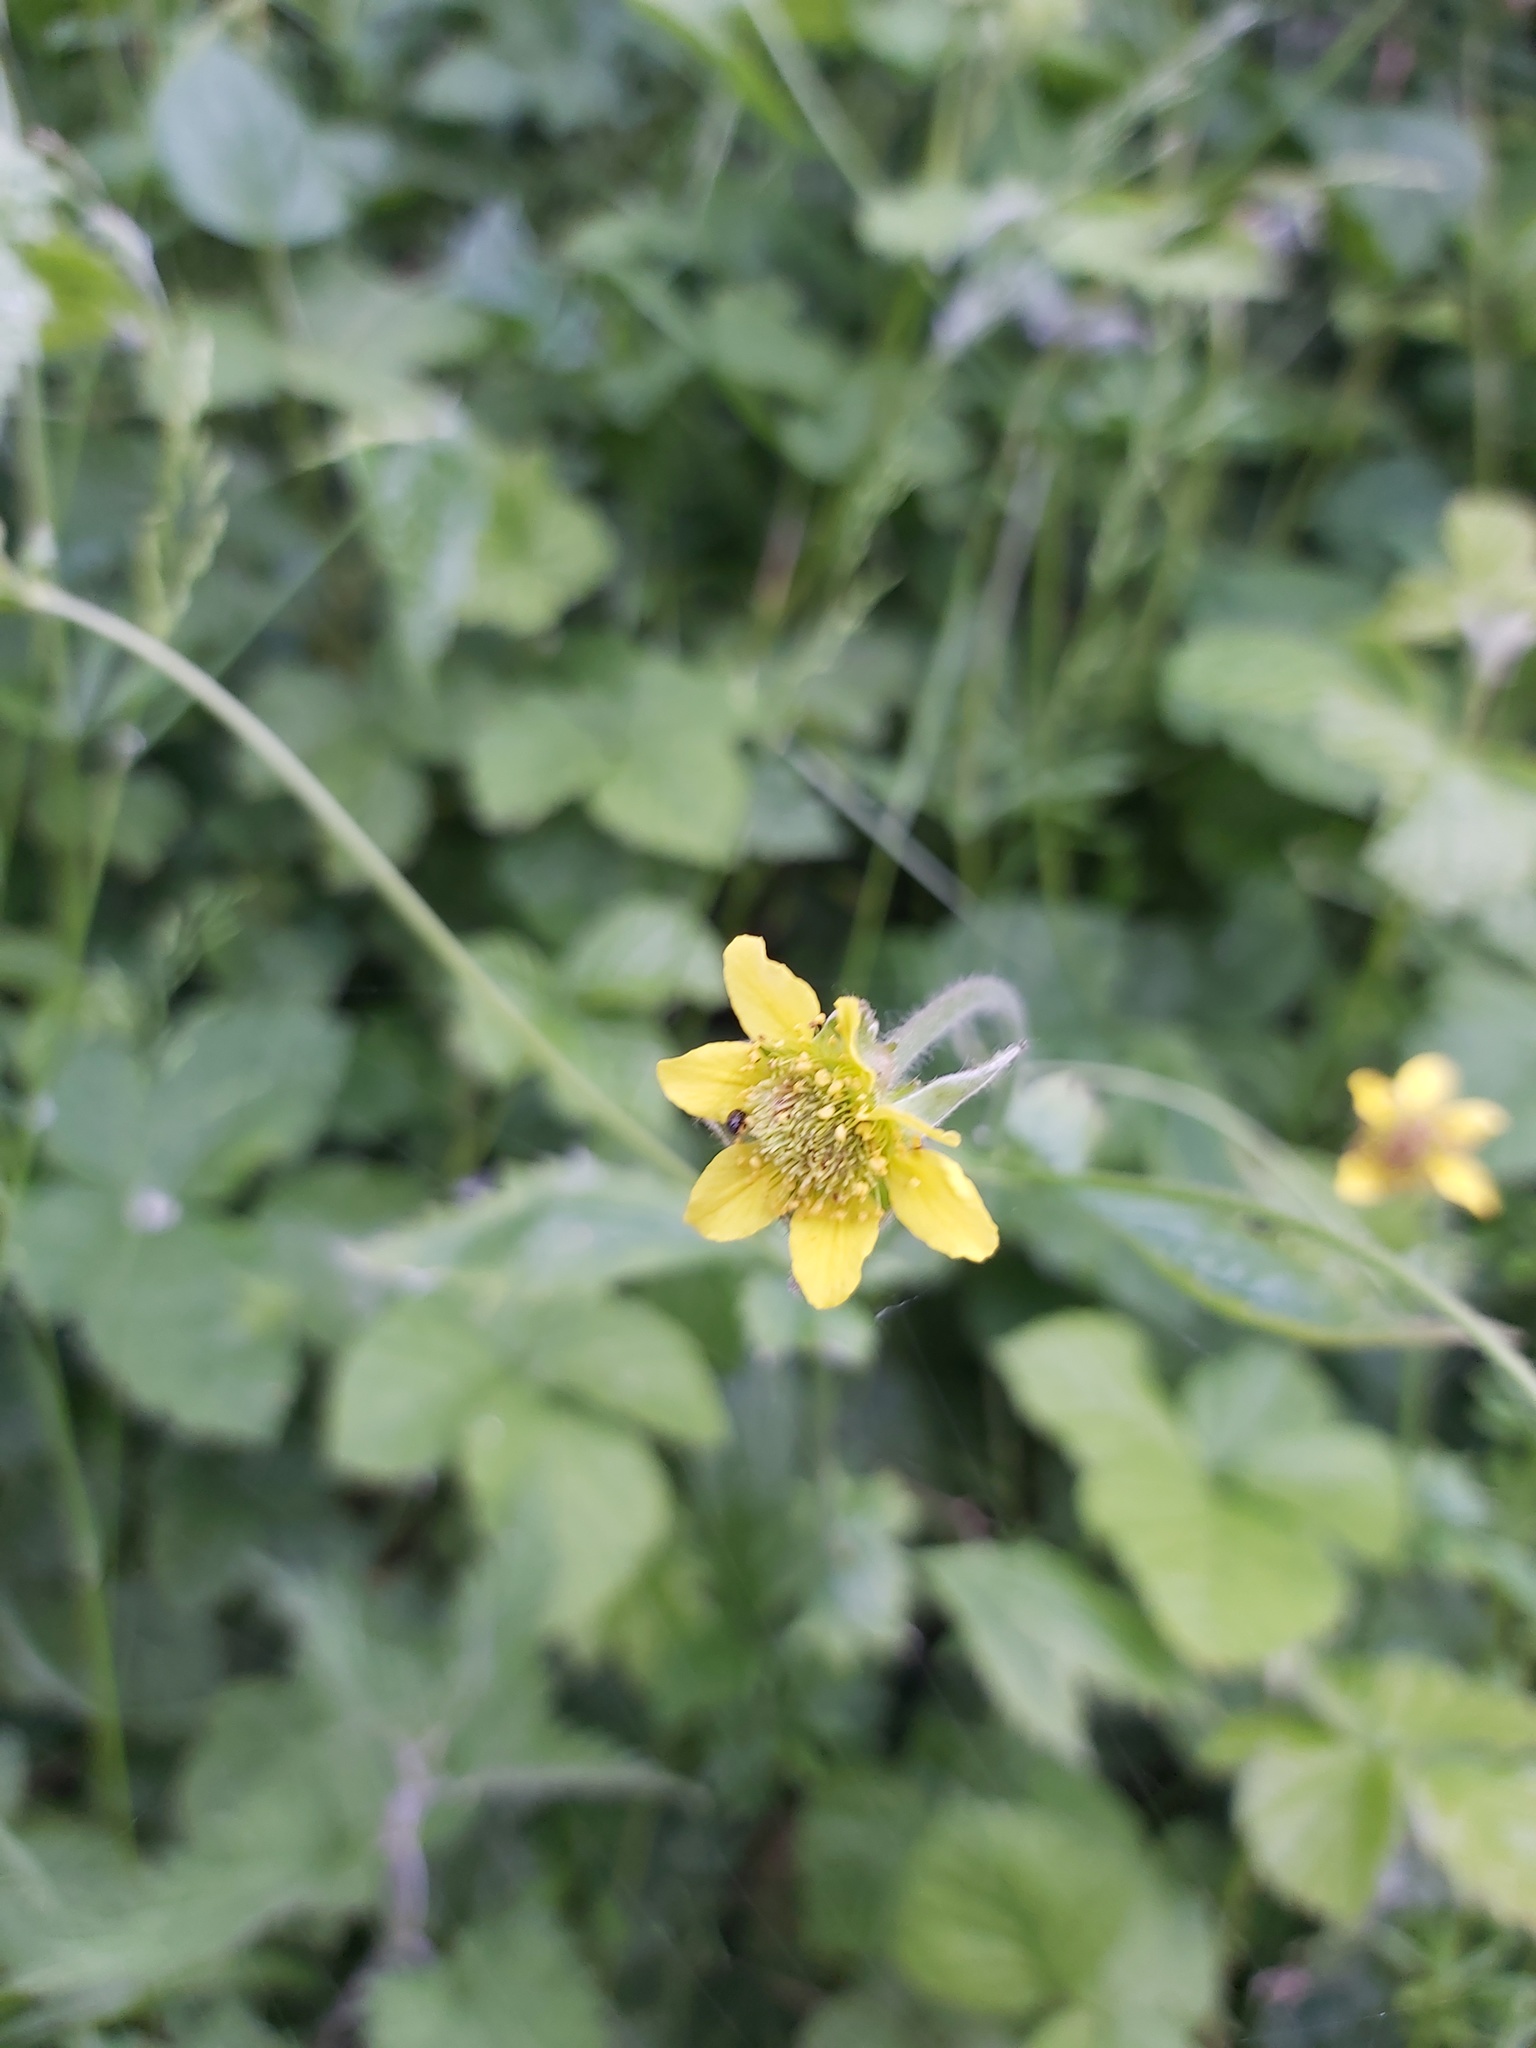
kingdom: Plantae
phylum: Tracheophyta
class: Magnoliopsida
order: Rosales
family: Rosaceae
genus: Geum
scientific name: Geum urbanum
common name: Wood avens
